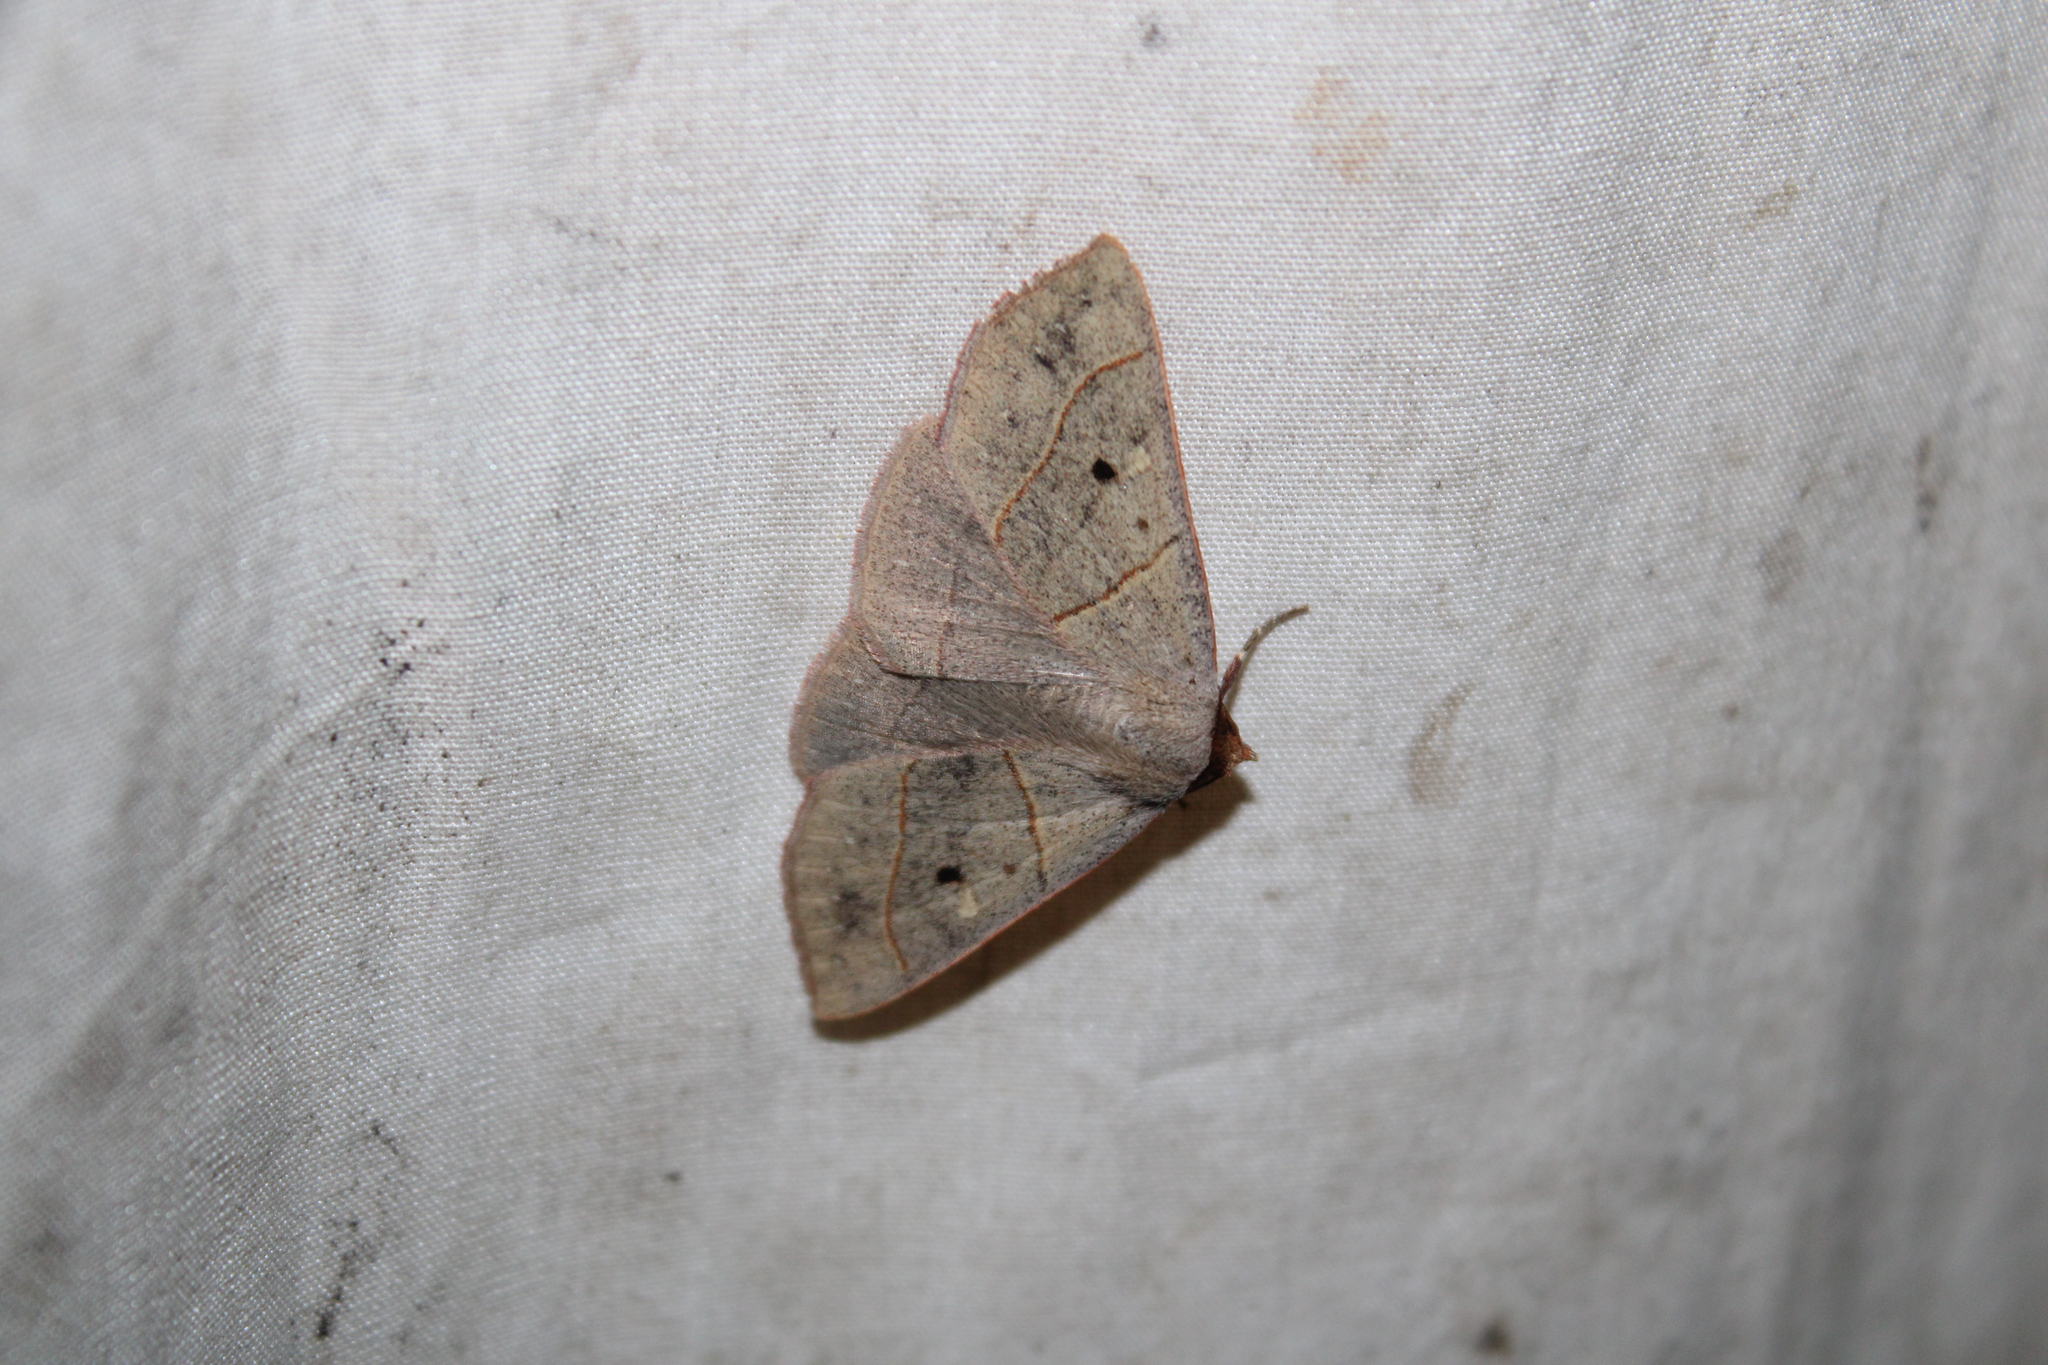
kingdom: Animalia
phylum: Arthropoda
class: Insecta
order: Lepidoptera
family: Erebidae
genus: Panopoda
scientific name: Panopoda rufimargo
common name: Red-lined panopoda moth
